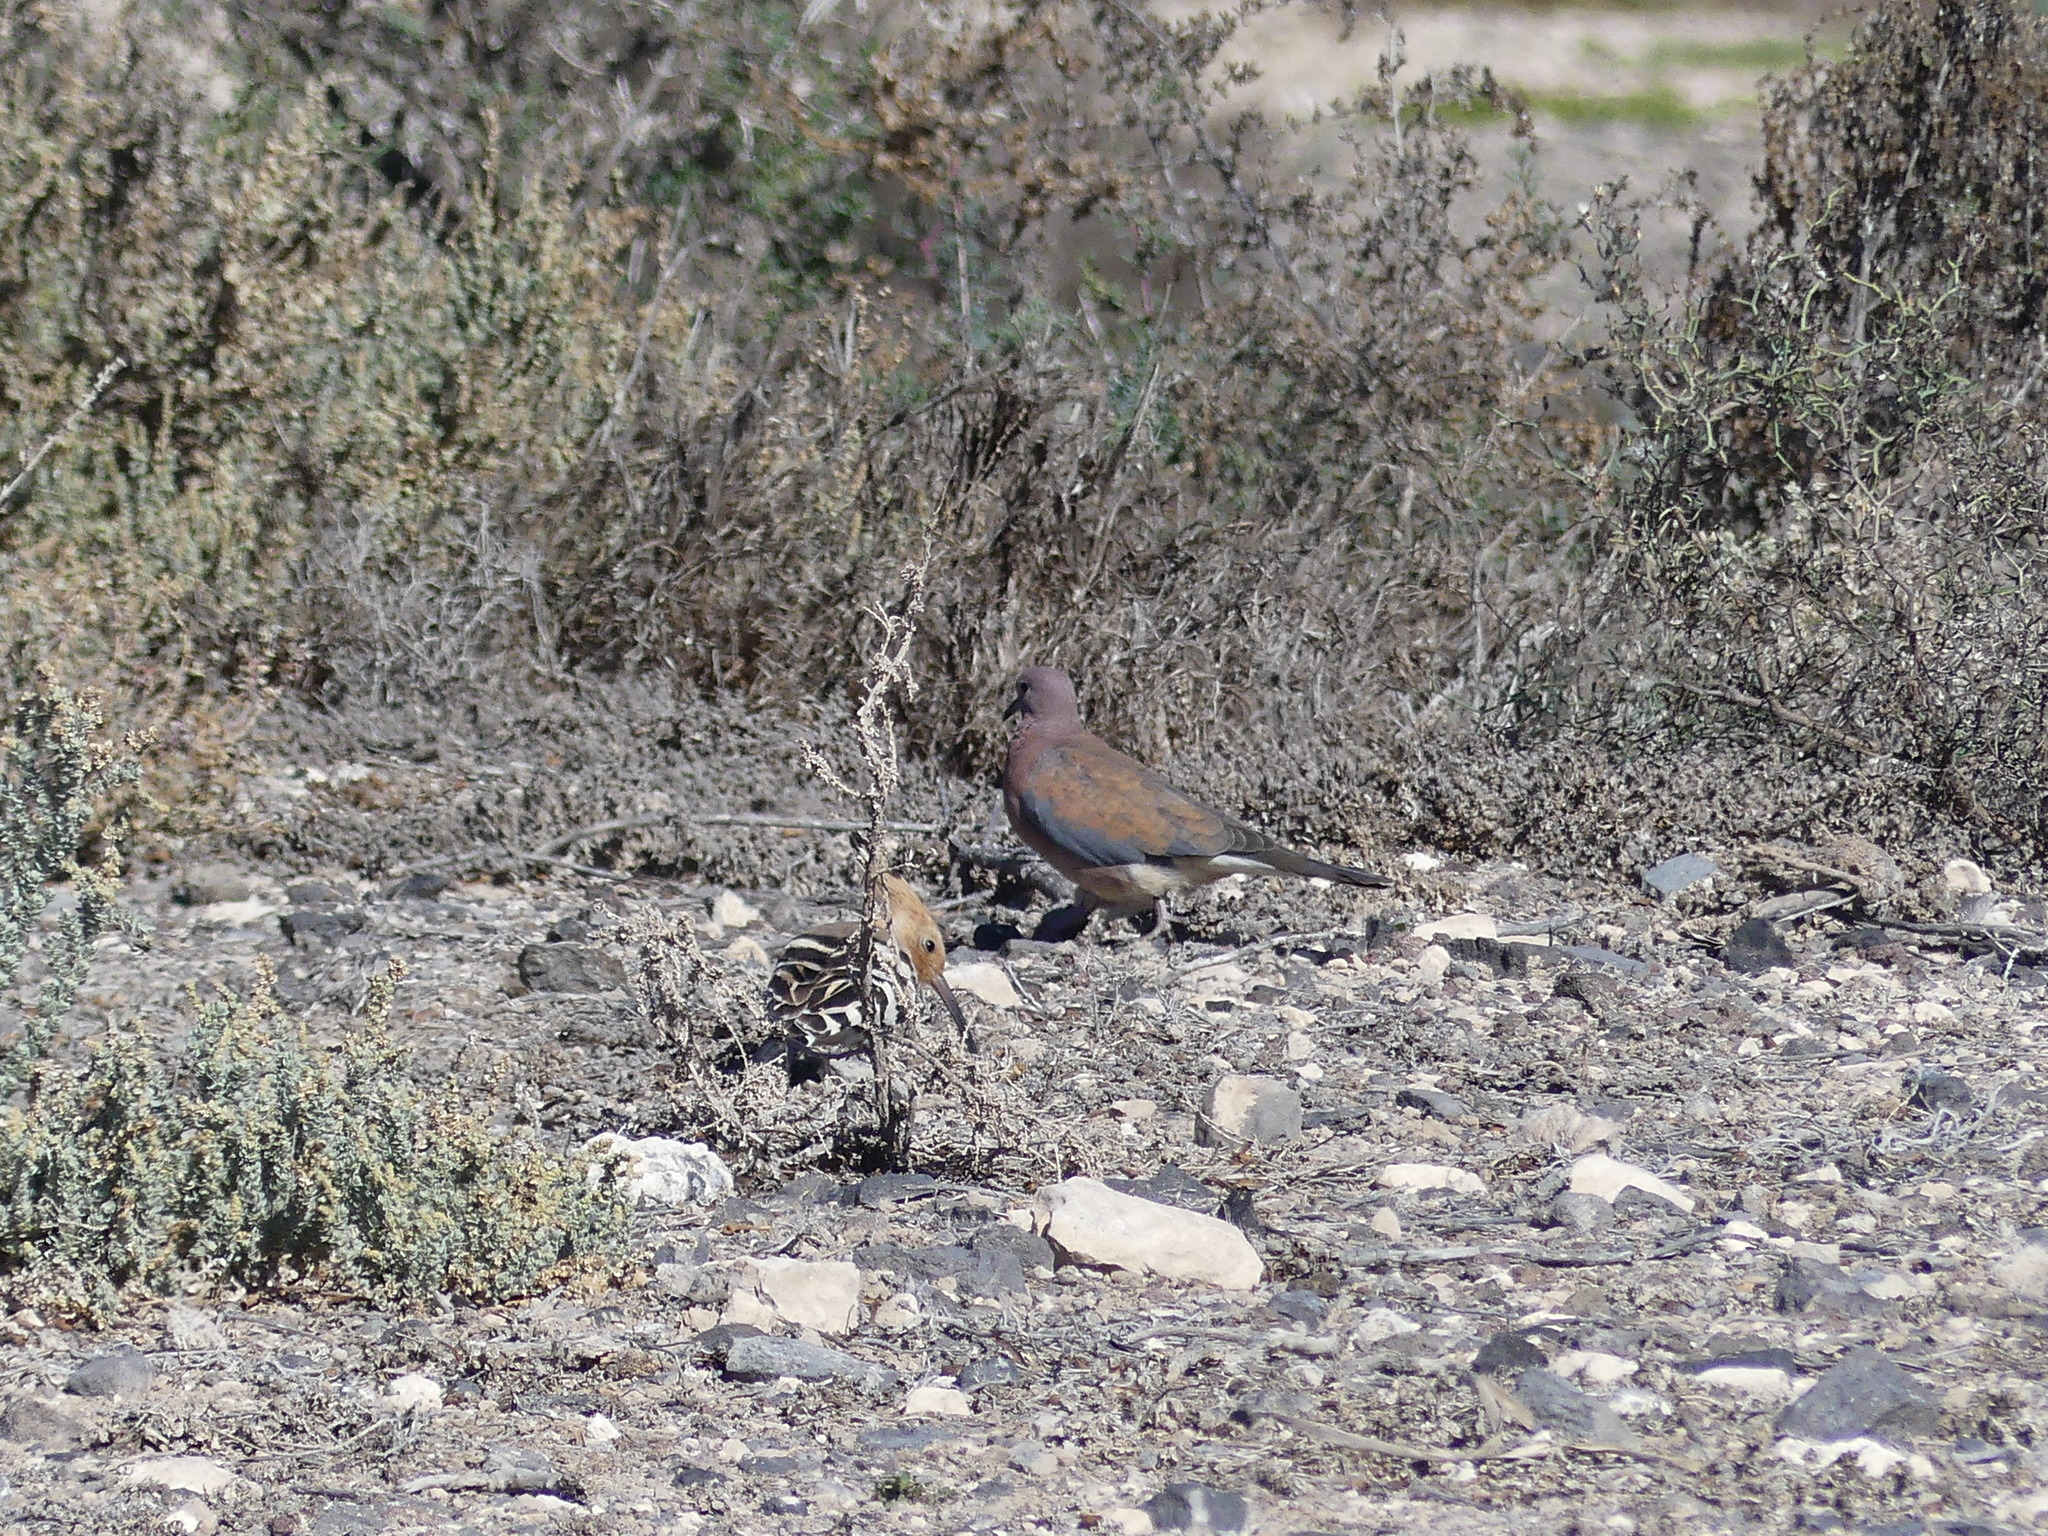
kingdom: Animalia
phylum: Chordata
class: Aves
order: Bucerotiformes
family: Upupidae
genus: Upupa
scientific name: Upupa epops
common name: Eurasian hoopoe
